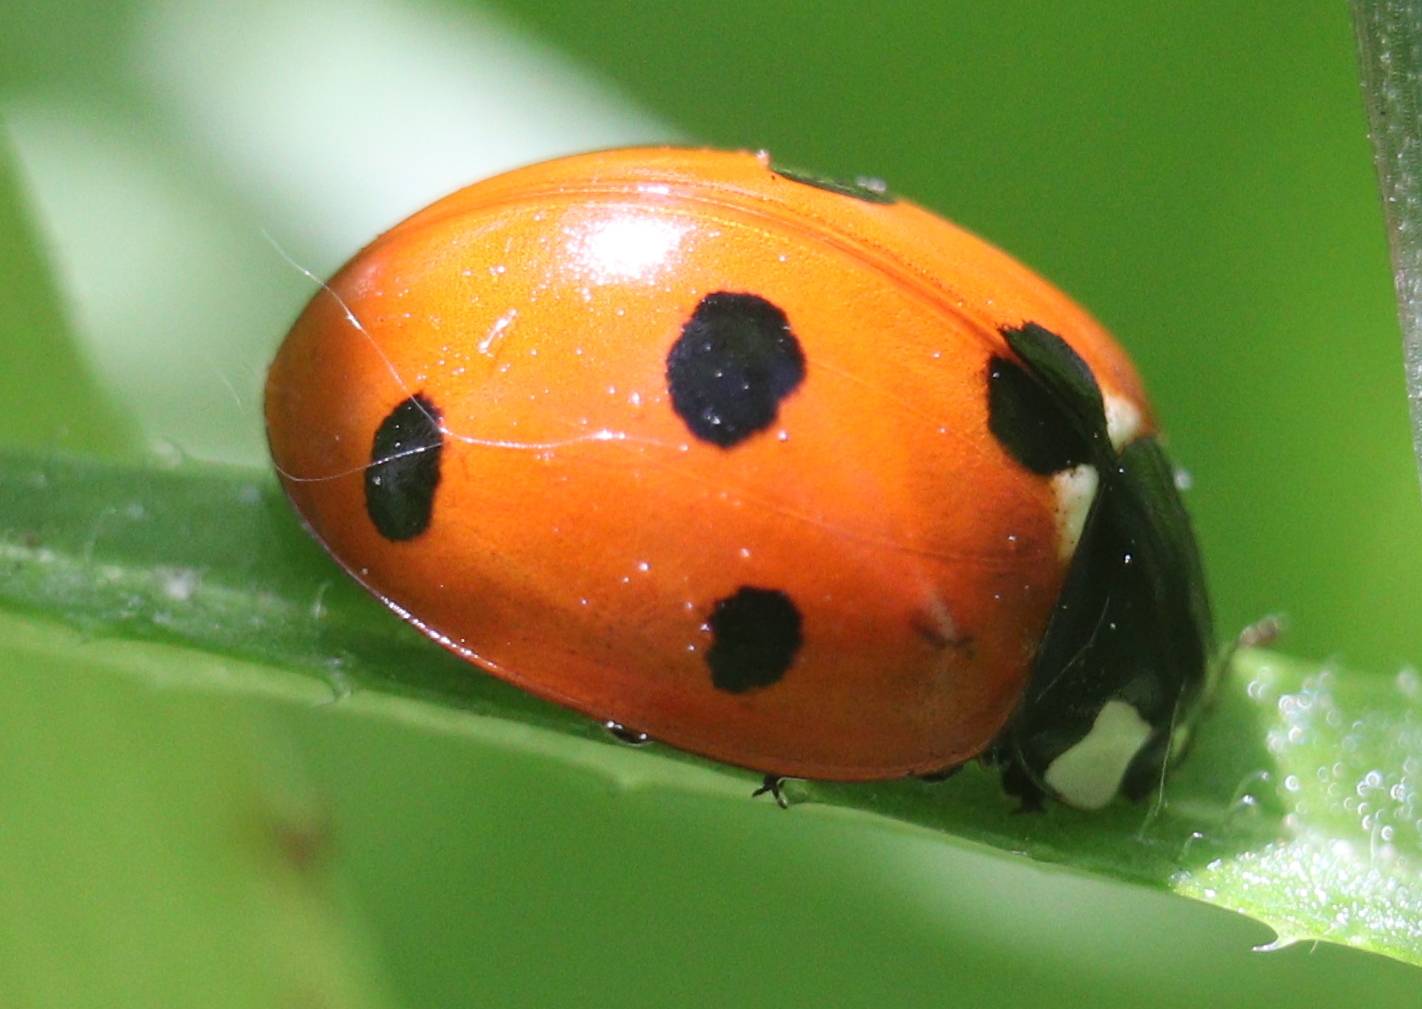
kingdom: Animalia
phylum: Arthropoda
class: Insecta
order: Coleoptera
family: Coccinellidae
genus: Coccinella
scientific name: Coccinella septempunctata
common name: Sevenspotted lady beetle
